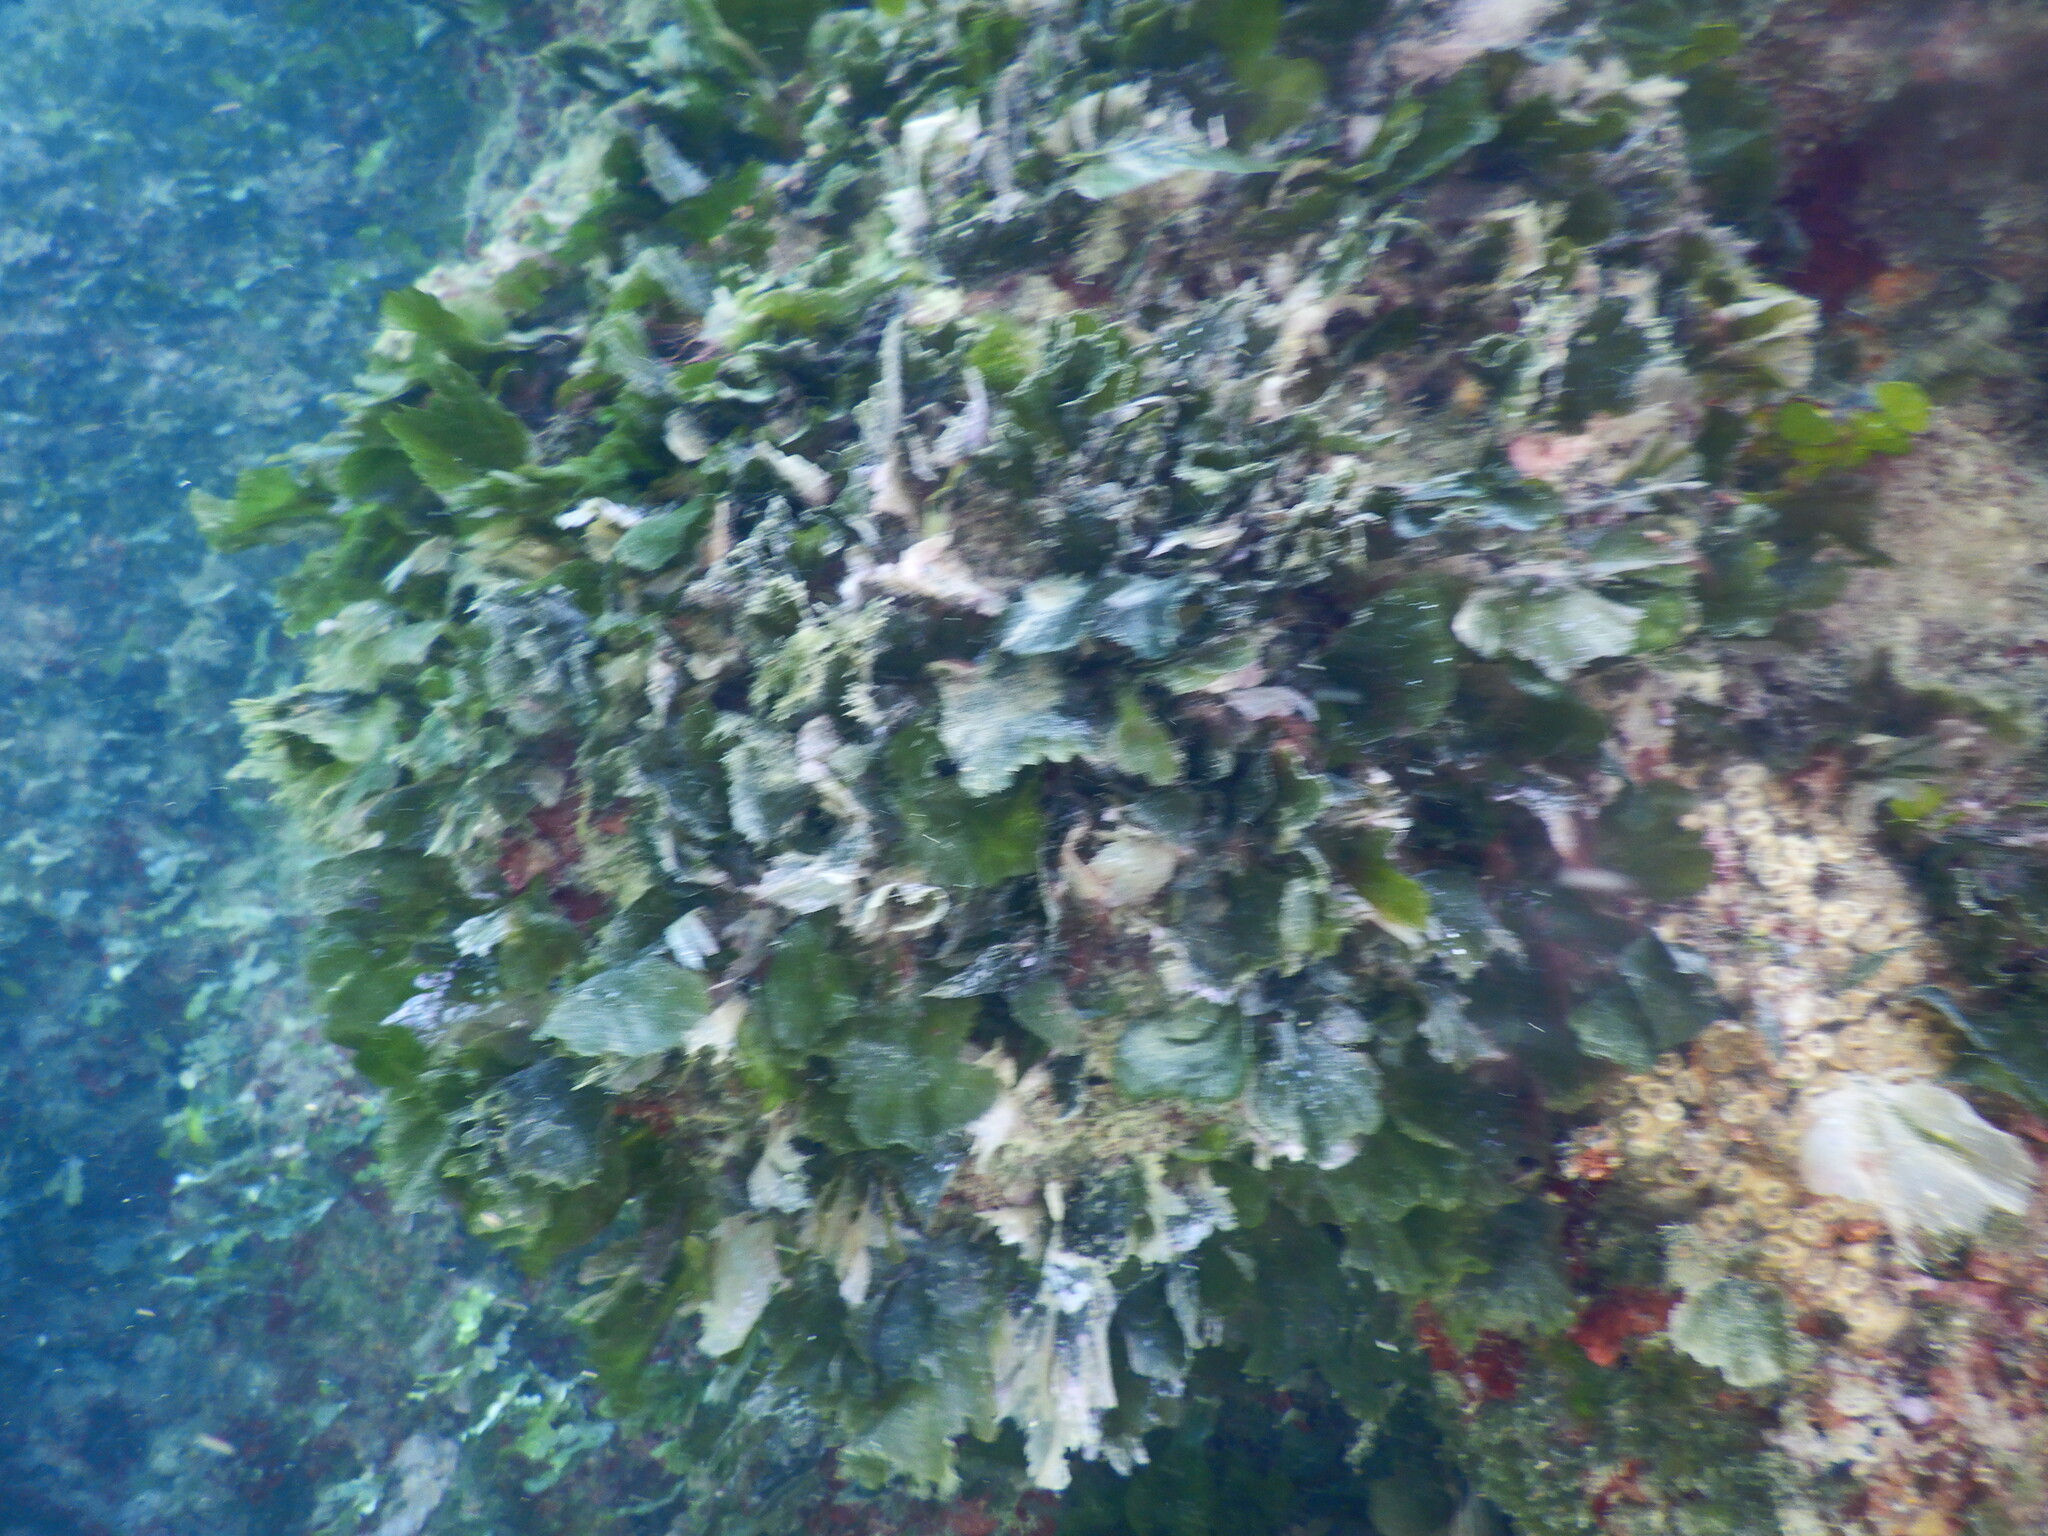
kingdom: Plantae
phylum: Chlorophyta
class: Ulvophyceae
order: Bryopsidales
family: Codiaceae
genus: Codium
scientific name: Codium Flabellia petiolata
